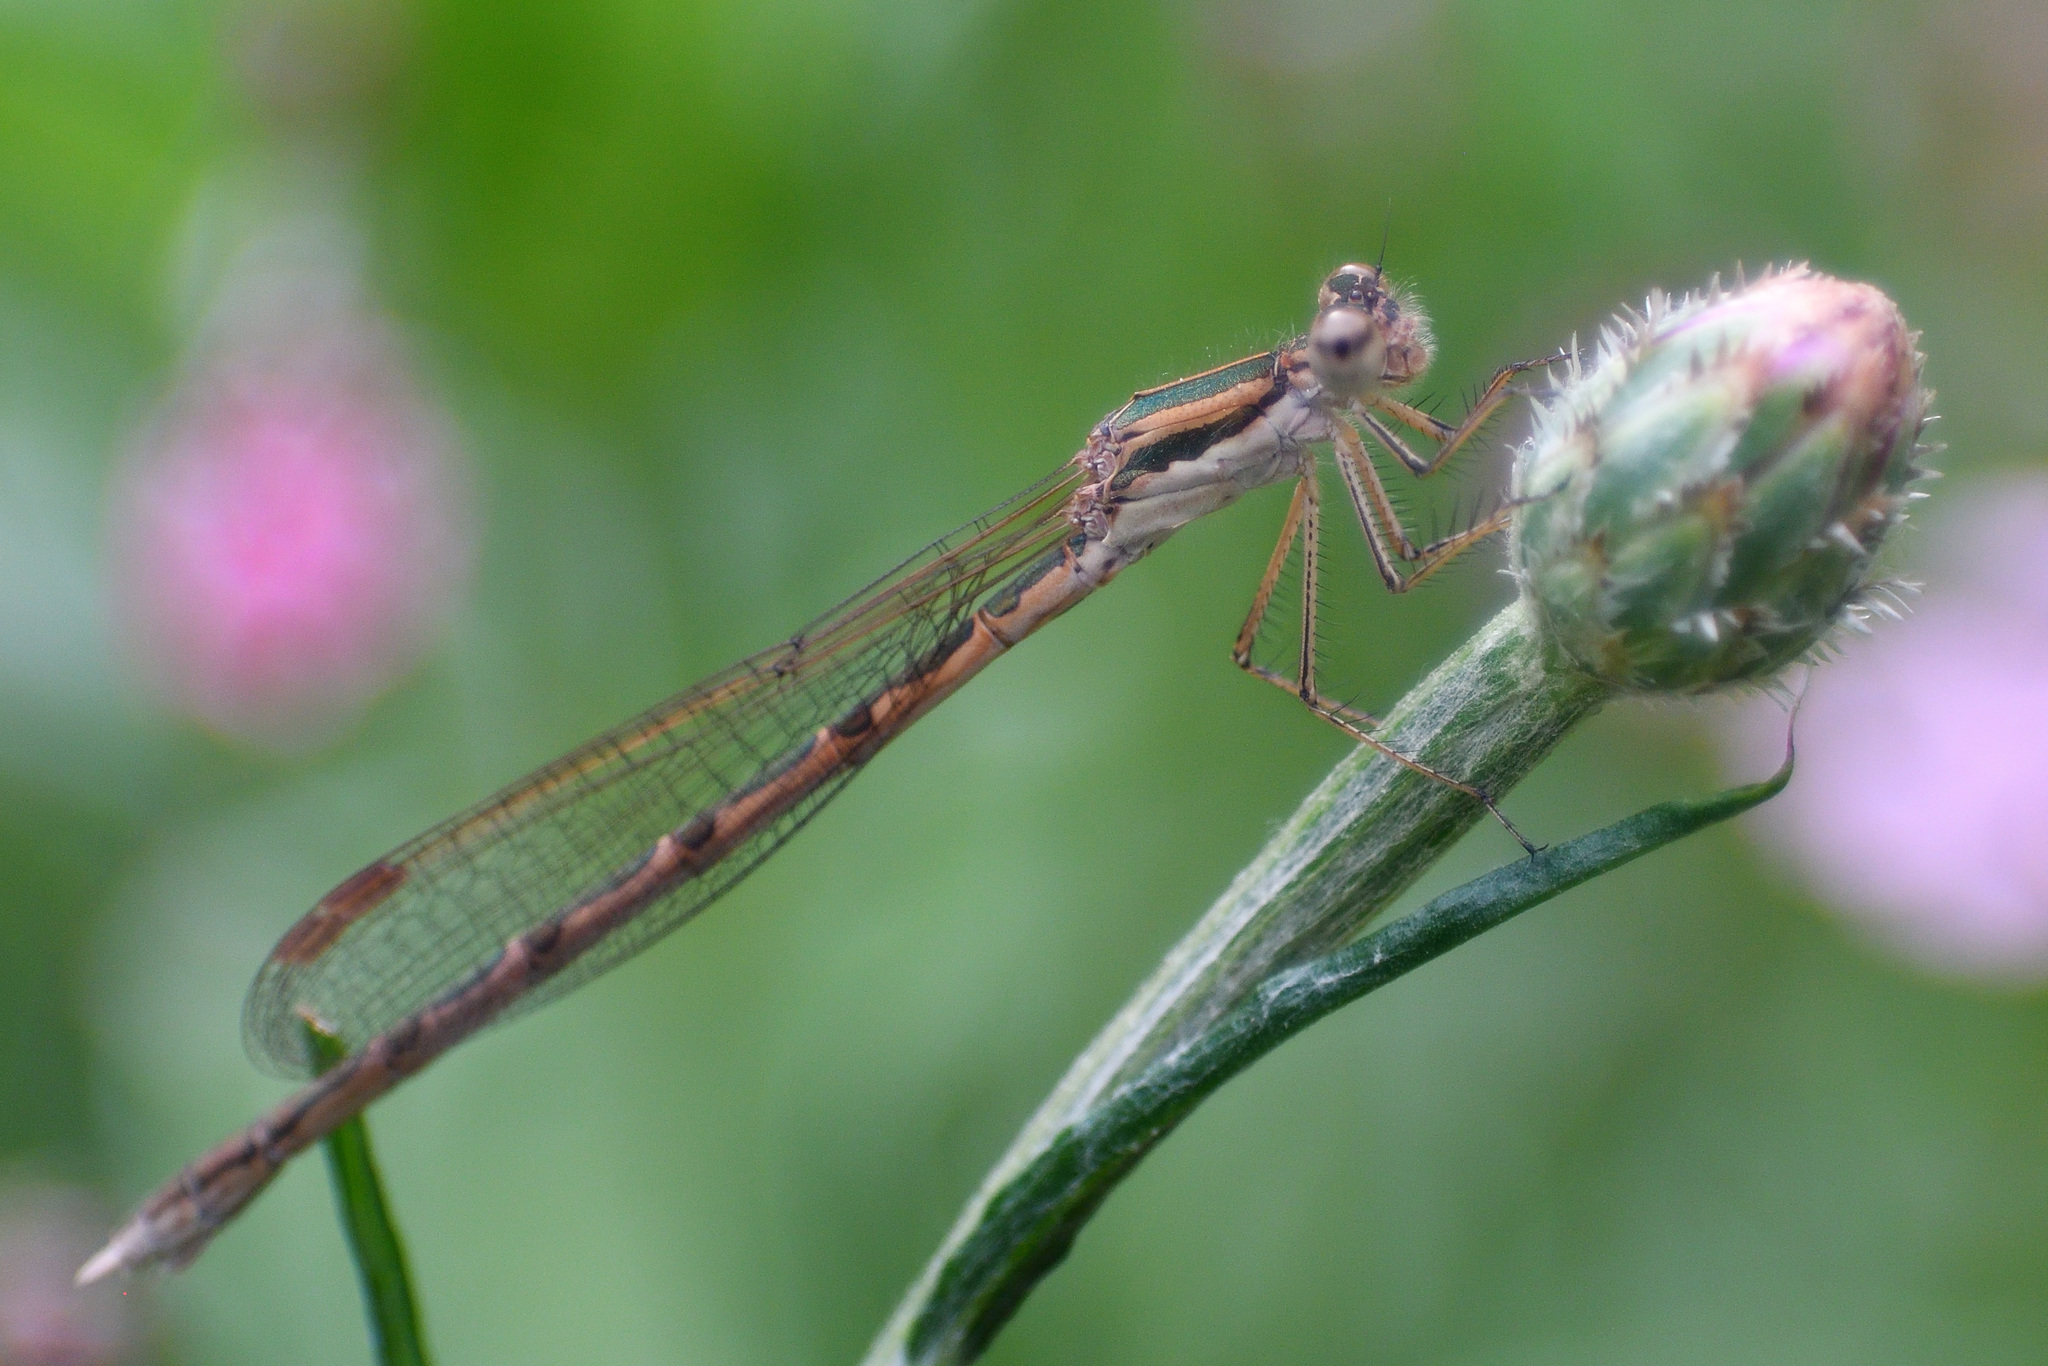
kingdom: Animalia
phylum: Arthropoda
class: Insecta
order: Odonata
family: Lestidae
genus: Sympecma
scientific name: Sympecma fusca
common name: Common winter damsel
